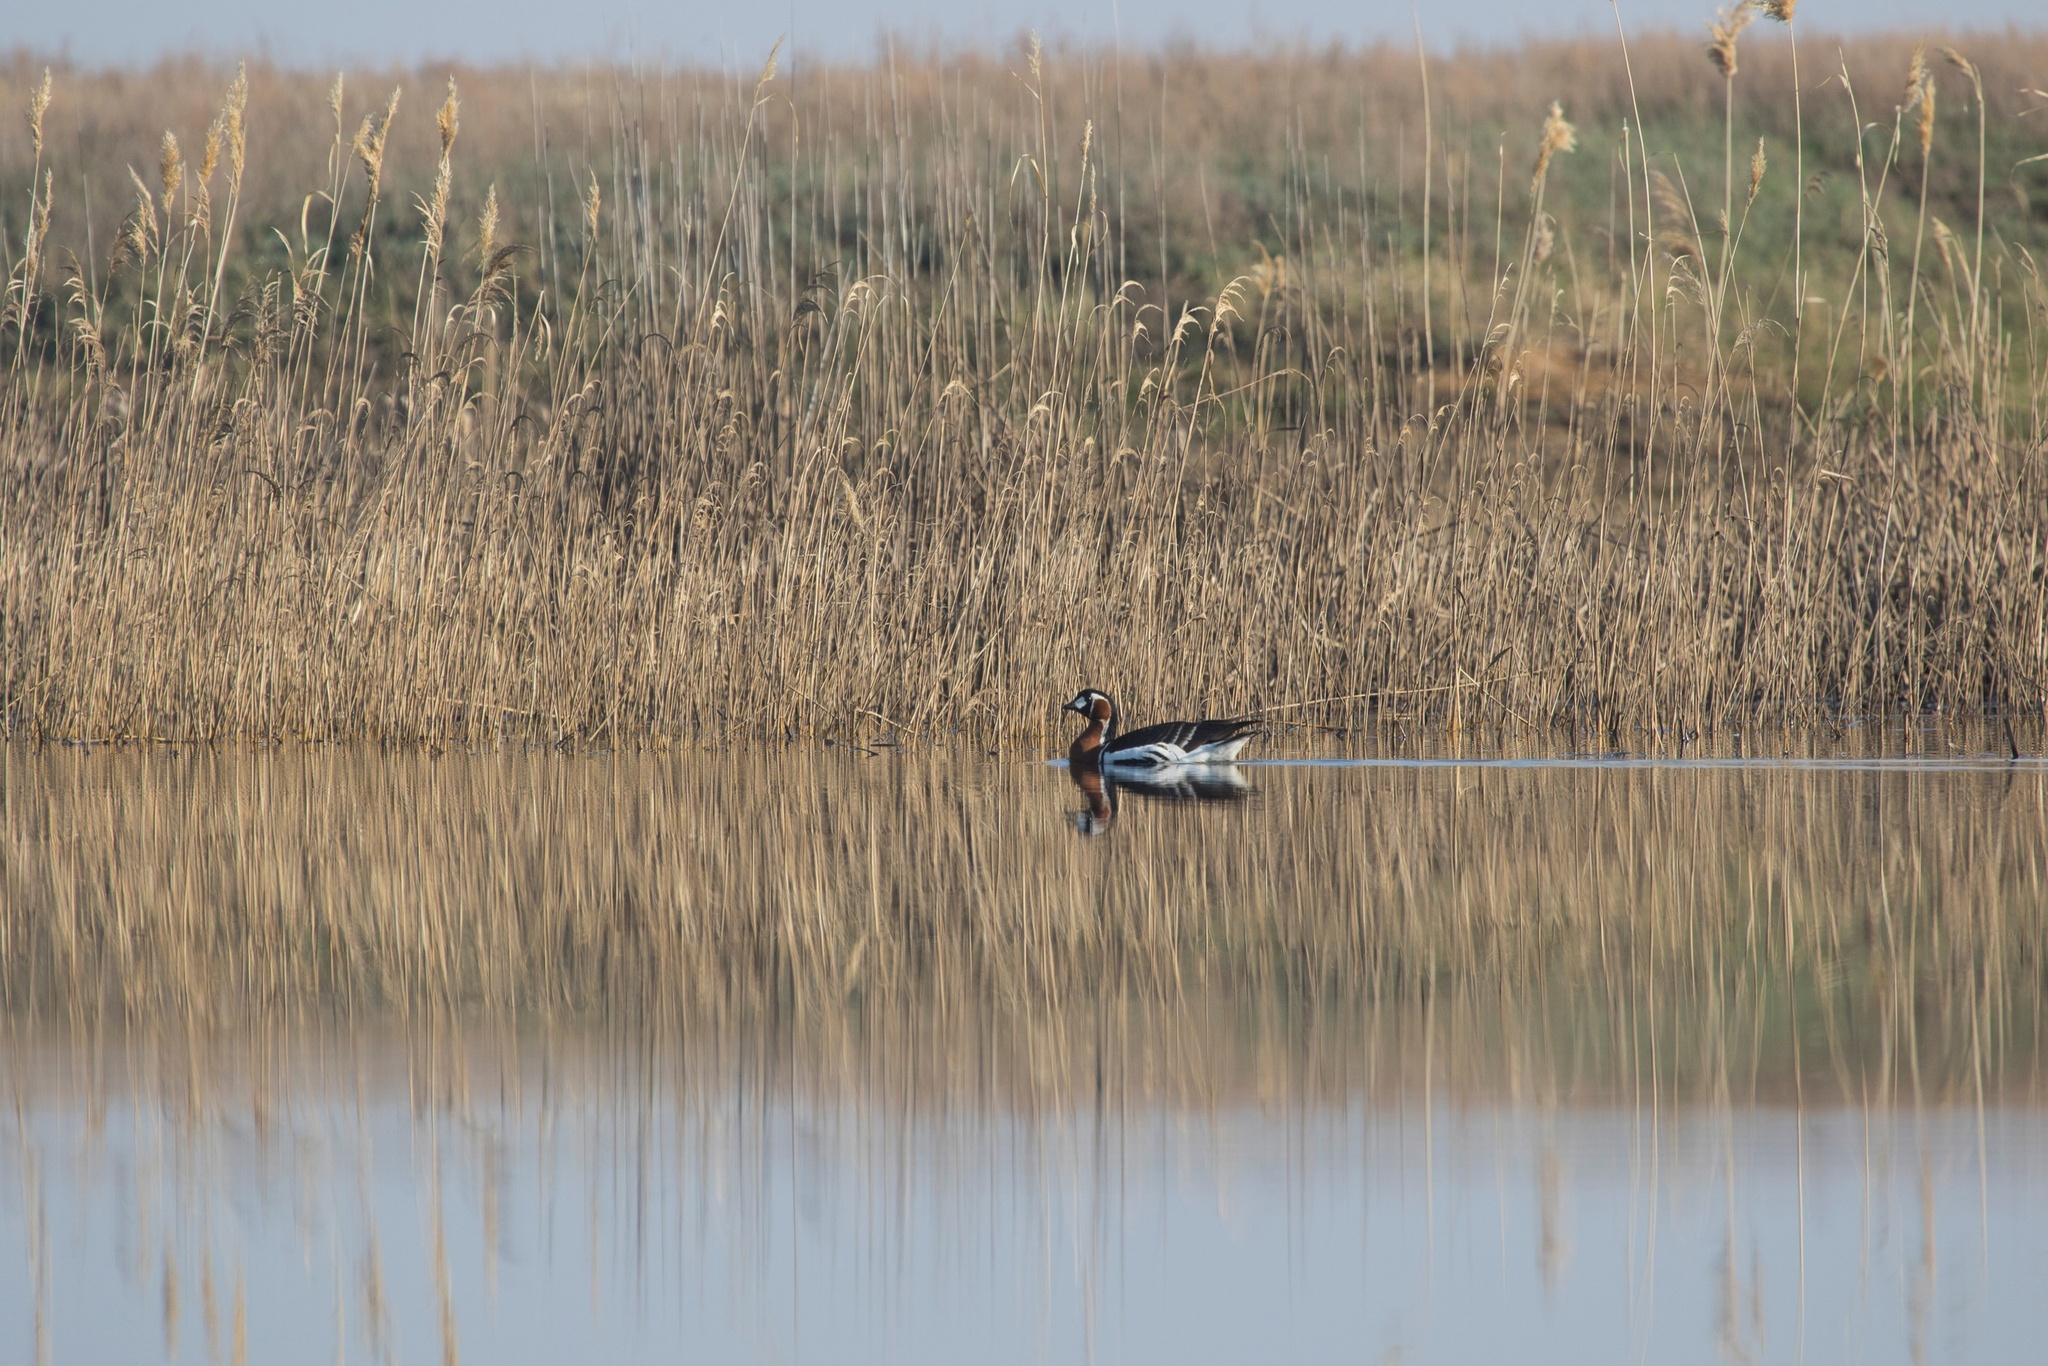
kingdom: Animalia
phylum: Chordata
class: Aves
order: Anseriformes
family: Anatidae
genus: Branta
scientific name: Branta ruficollis
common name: Red-breasted goose
